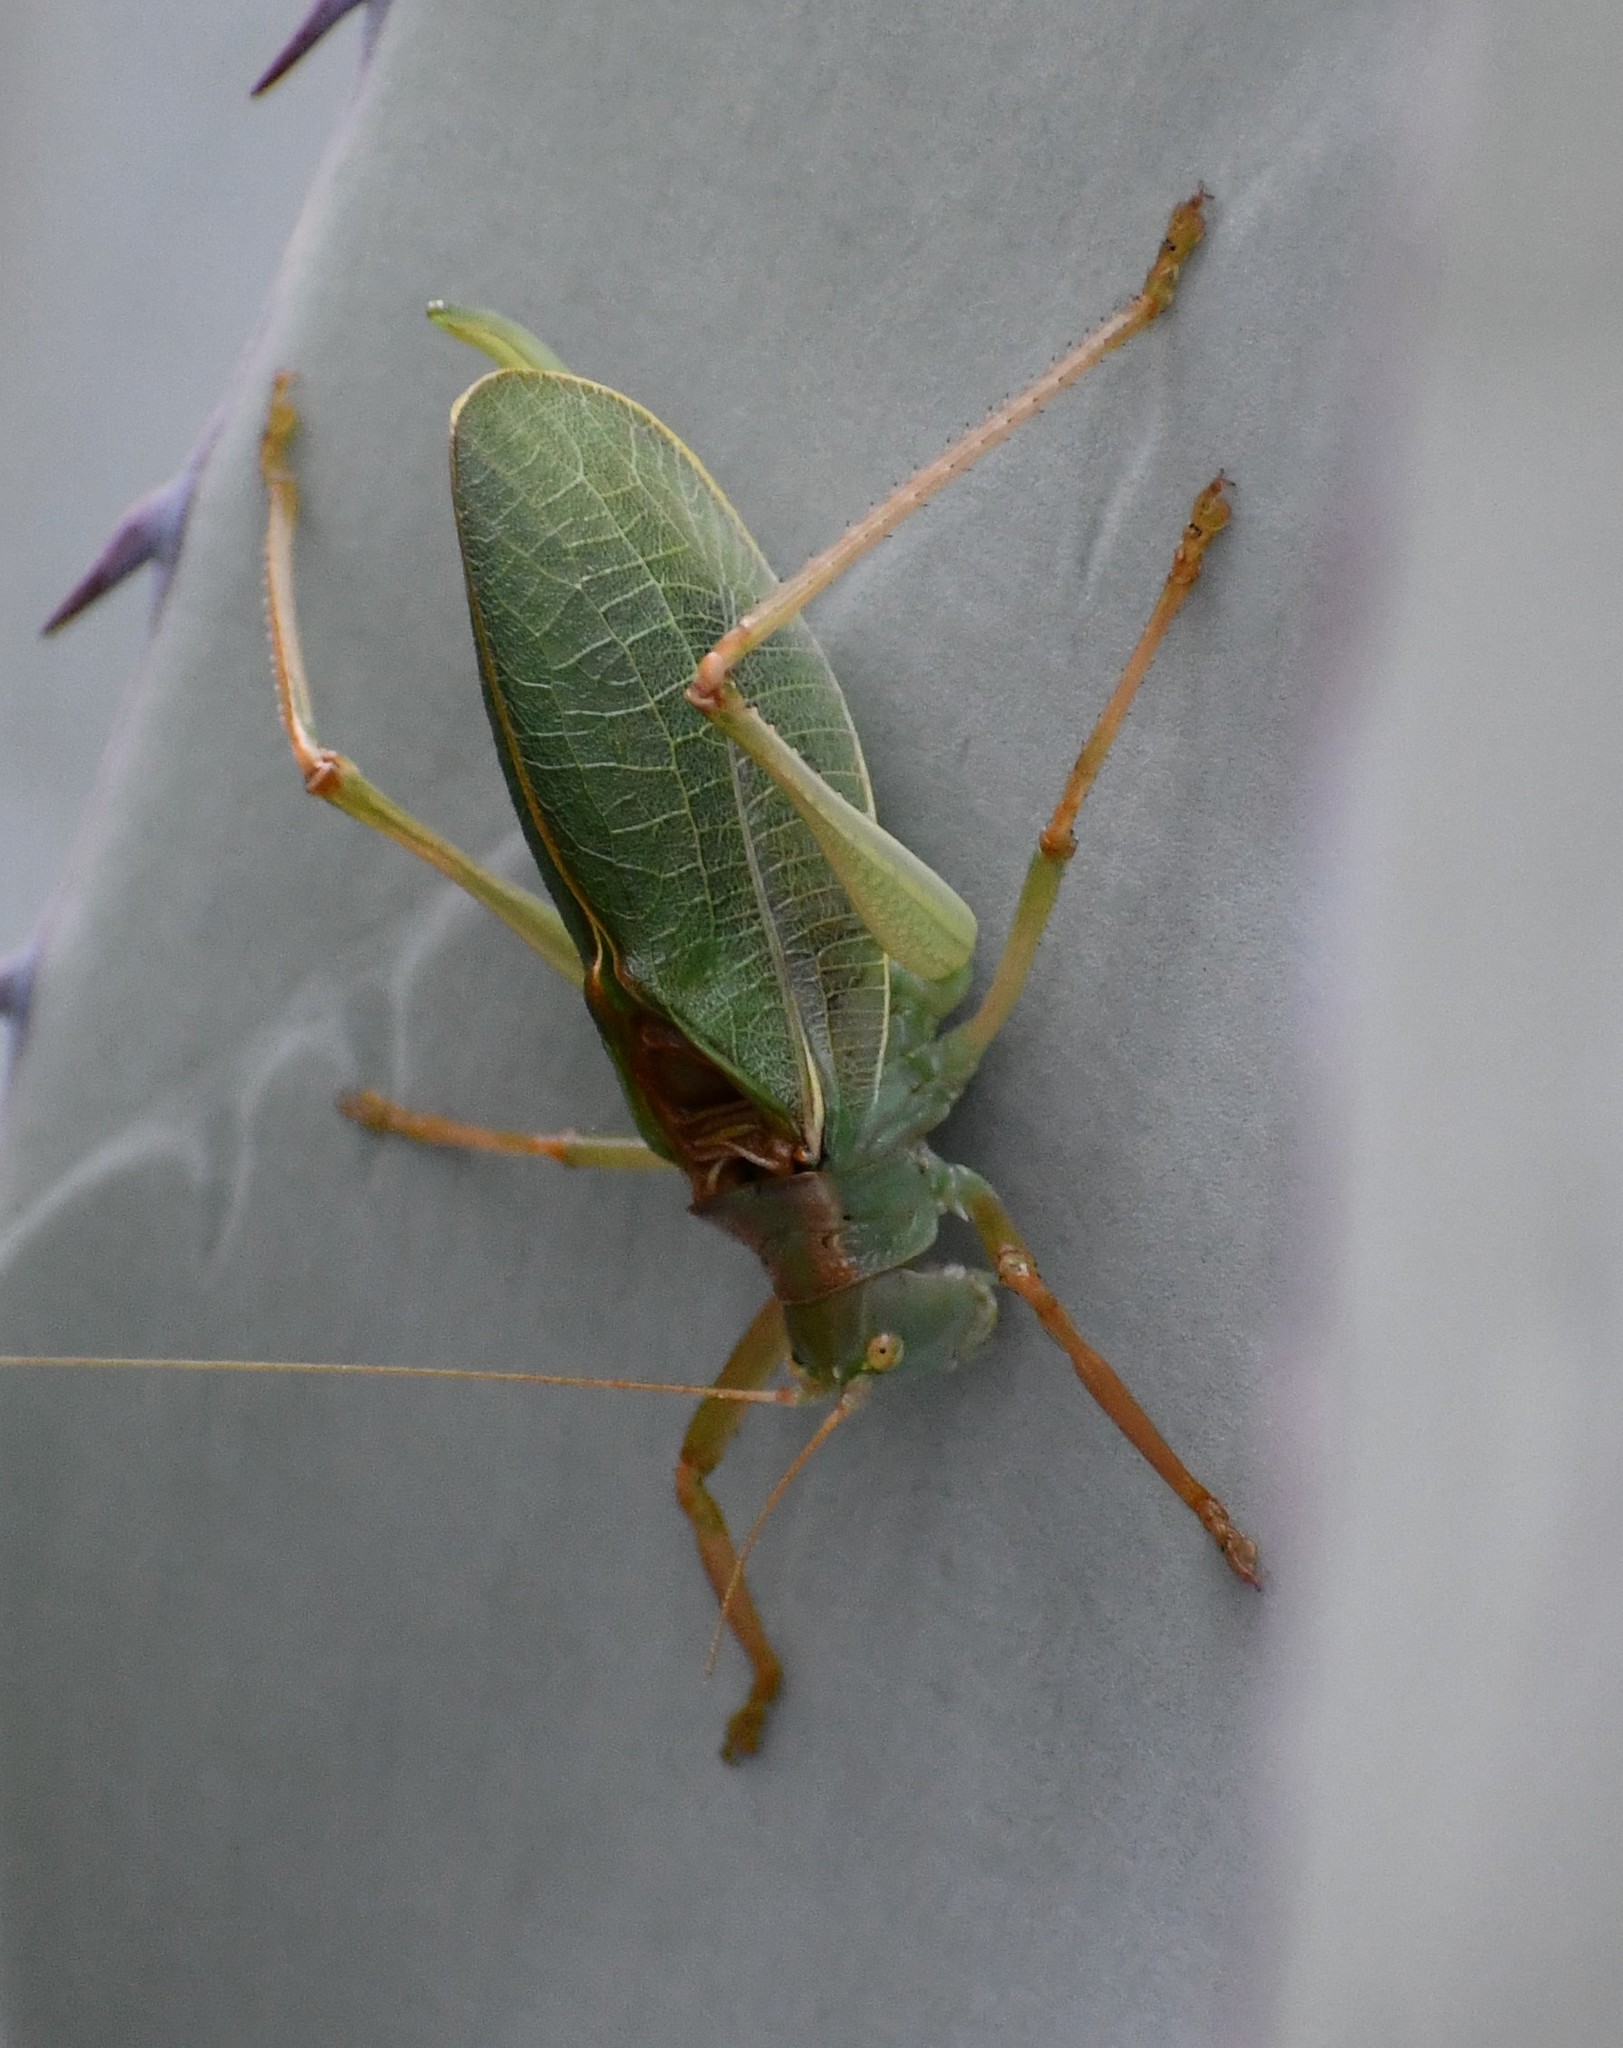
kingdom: Animalia
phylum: Arthropoda
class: Insecta
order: Orthoptera
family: Tettigoniidae
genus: Paracyrtophyllus
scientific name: Paracyrtophyllus excelsus
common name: Chisos katydid
